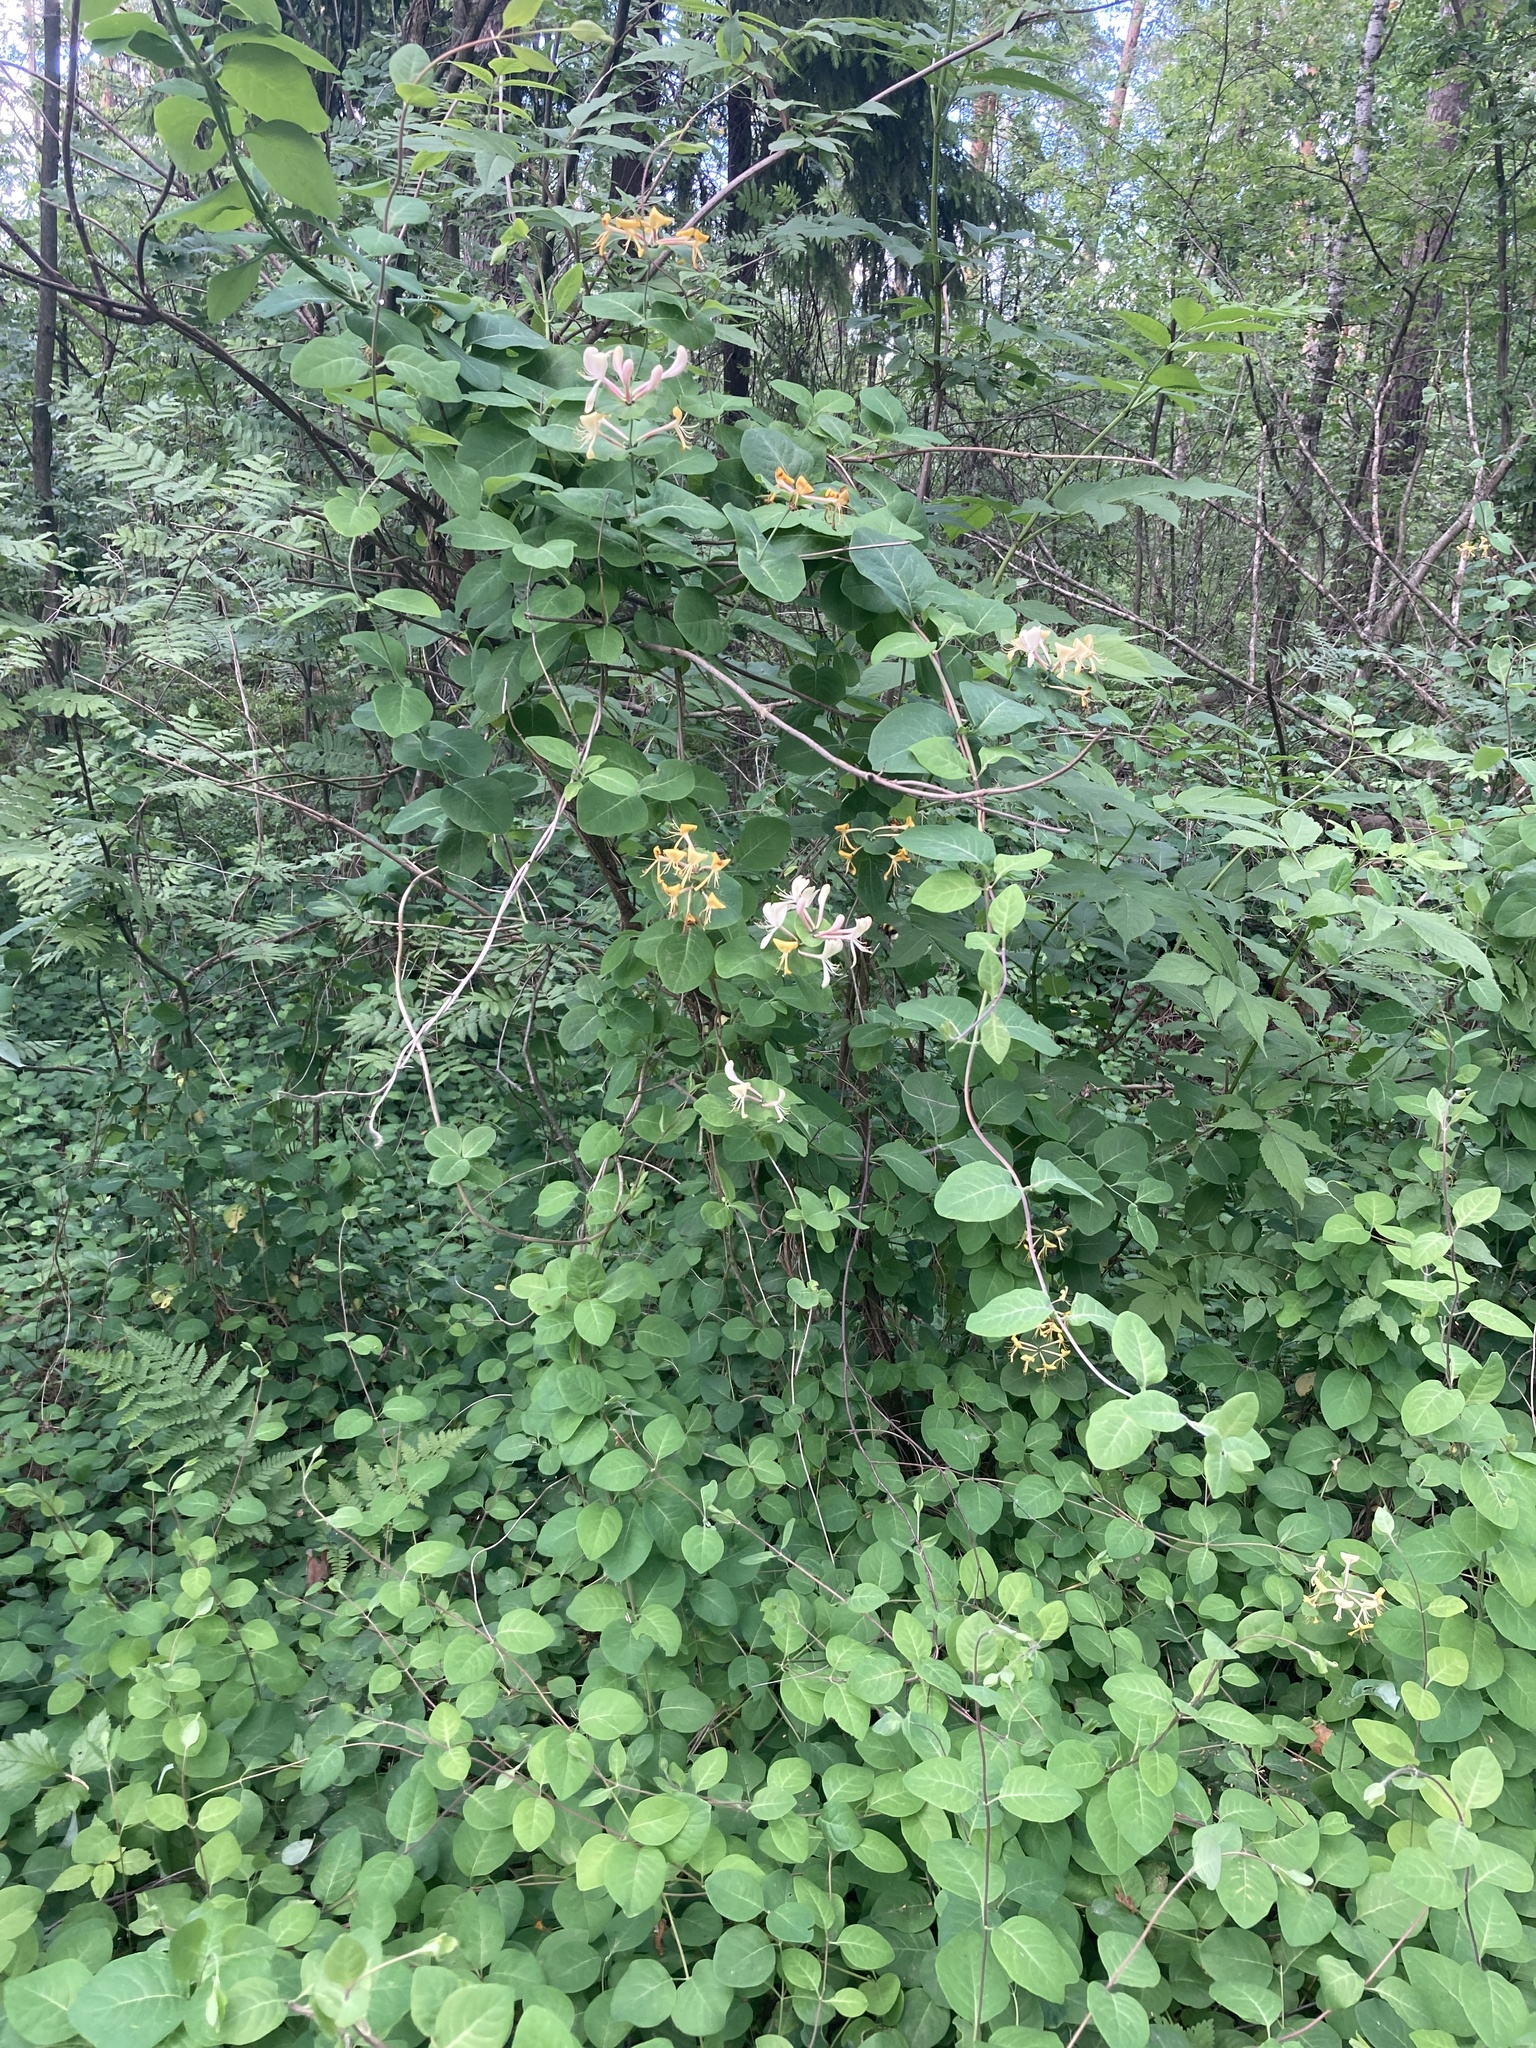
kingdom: Plantae
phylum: Tracheophyta
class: Magnoliopsida
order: Dipsacales
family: Caprifoliaceae
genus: Lonicera
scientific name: Lonicera caprifolium
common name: Perfoliate honeysuckle
